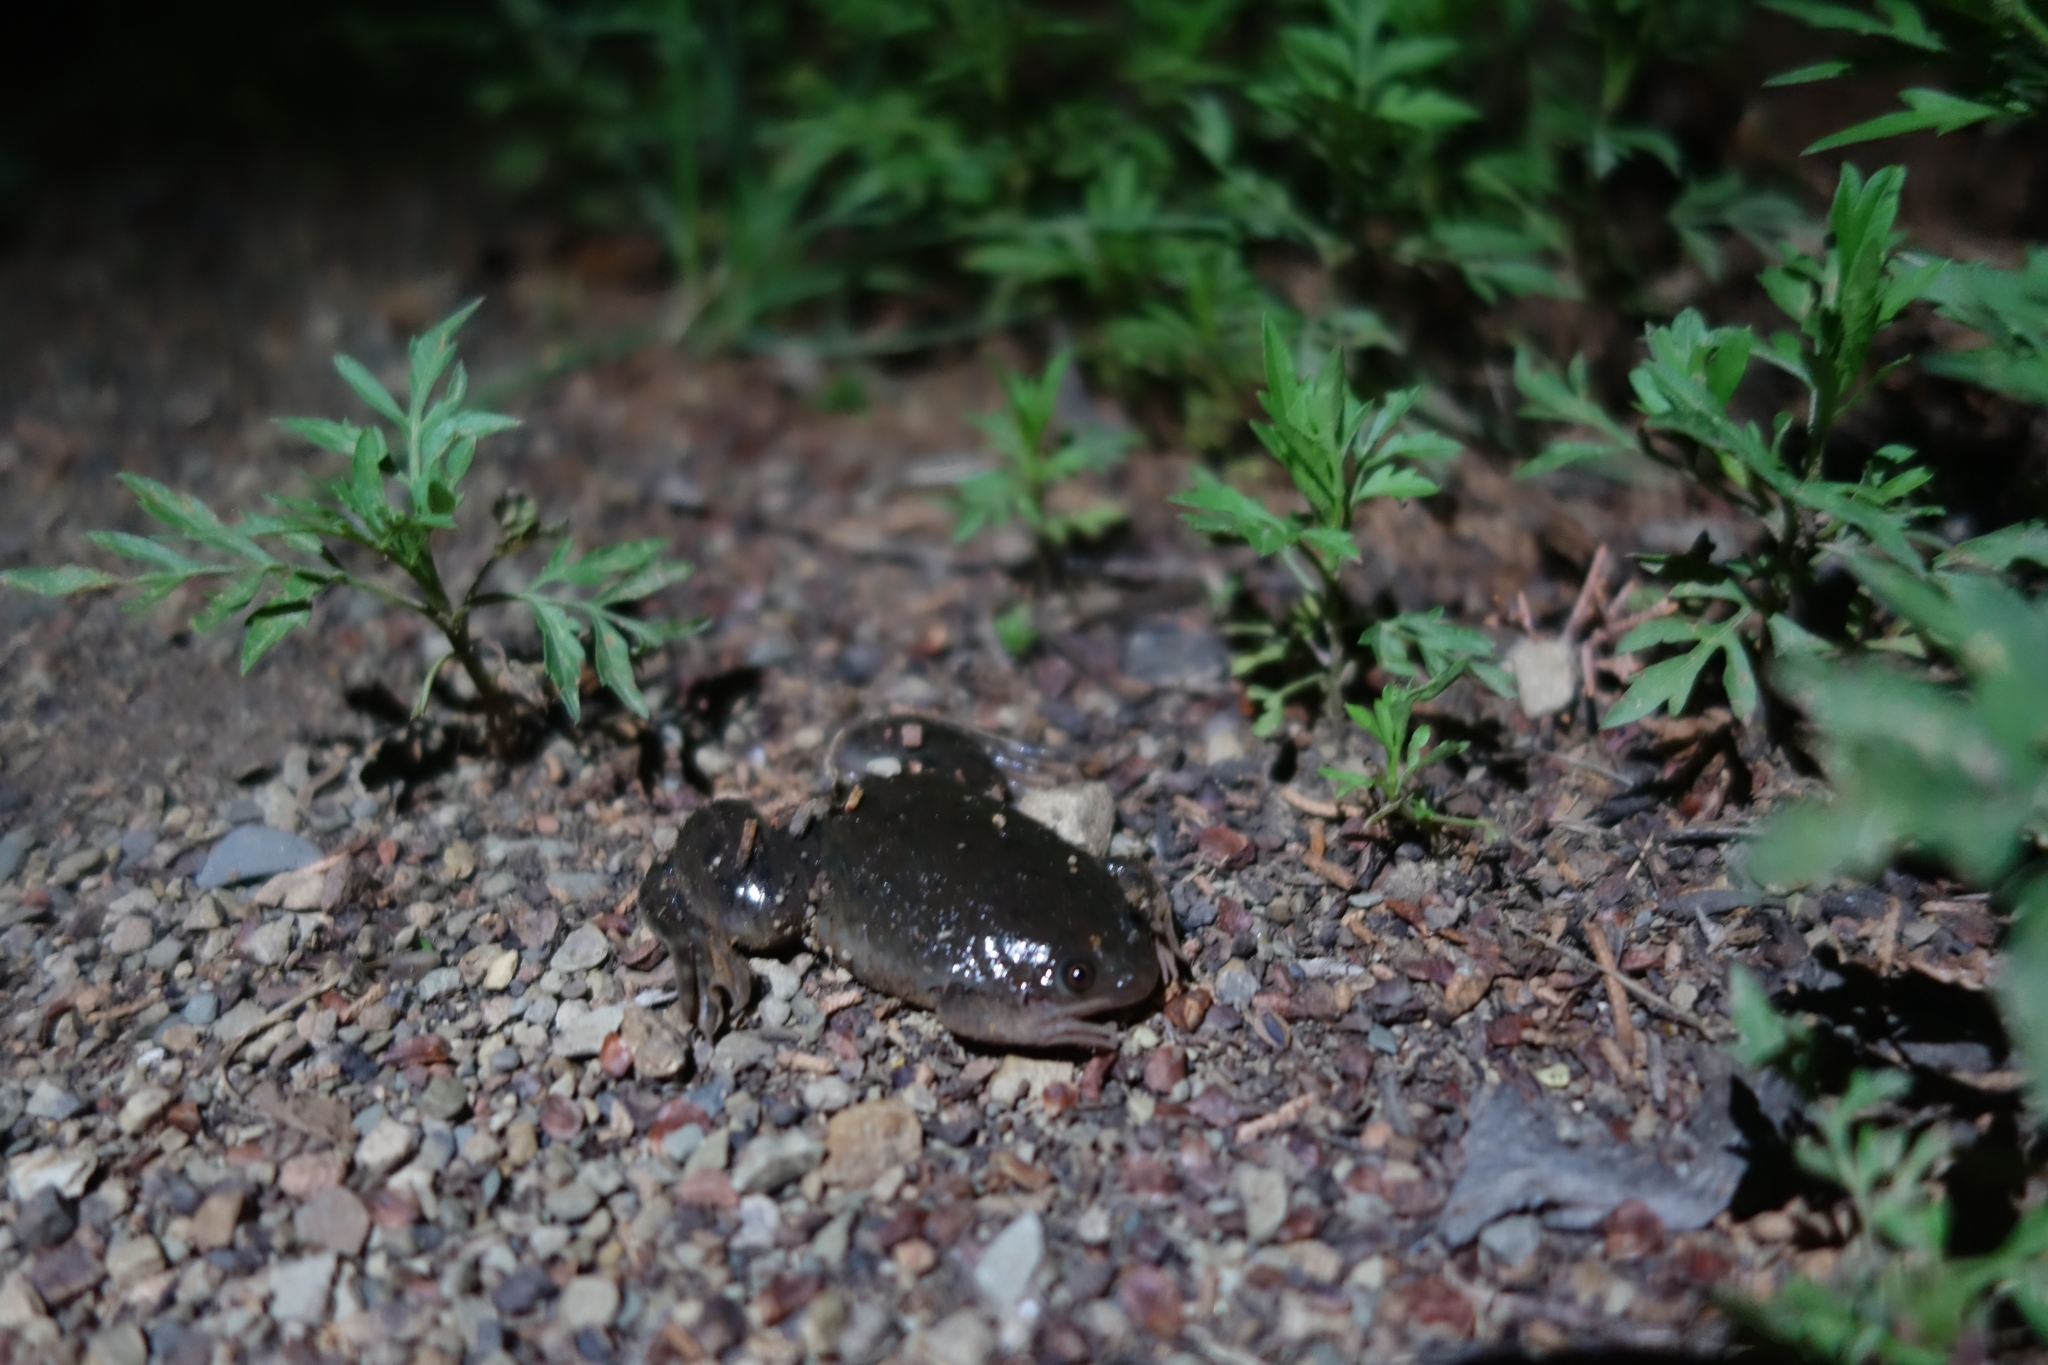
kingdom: Animalia
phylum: Chordata
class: Amphibia
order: Anura
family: Pipidae
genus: Xenopus
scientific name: Xenopus laevis
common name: African clawed frog
